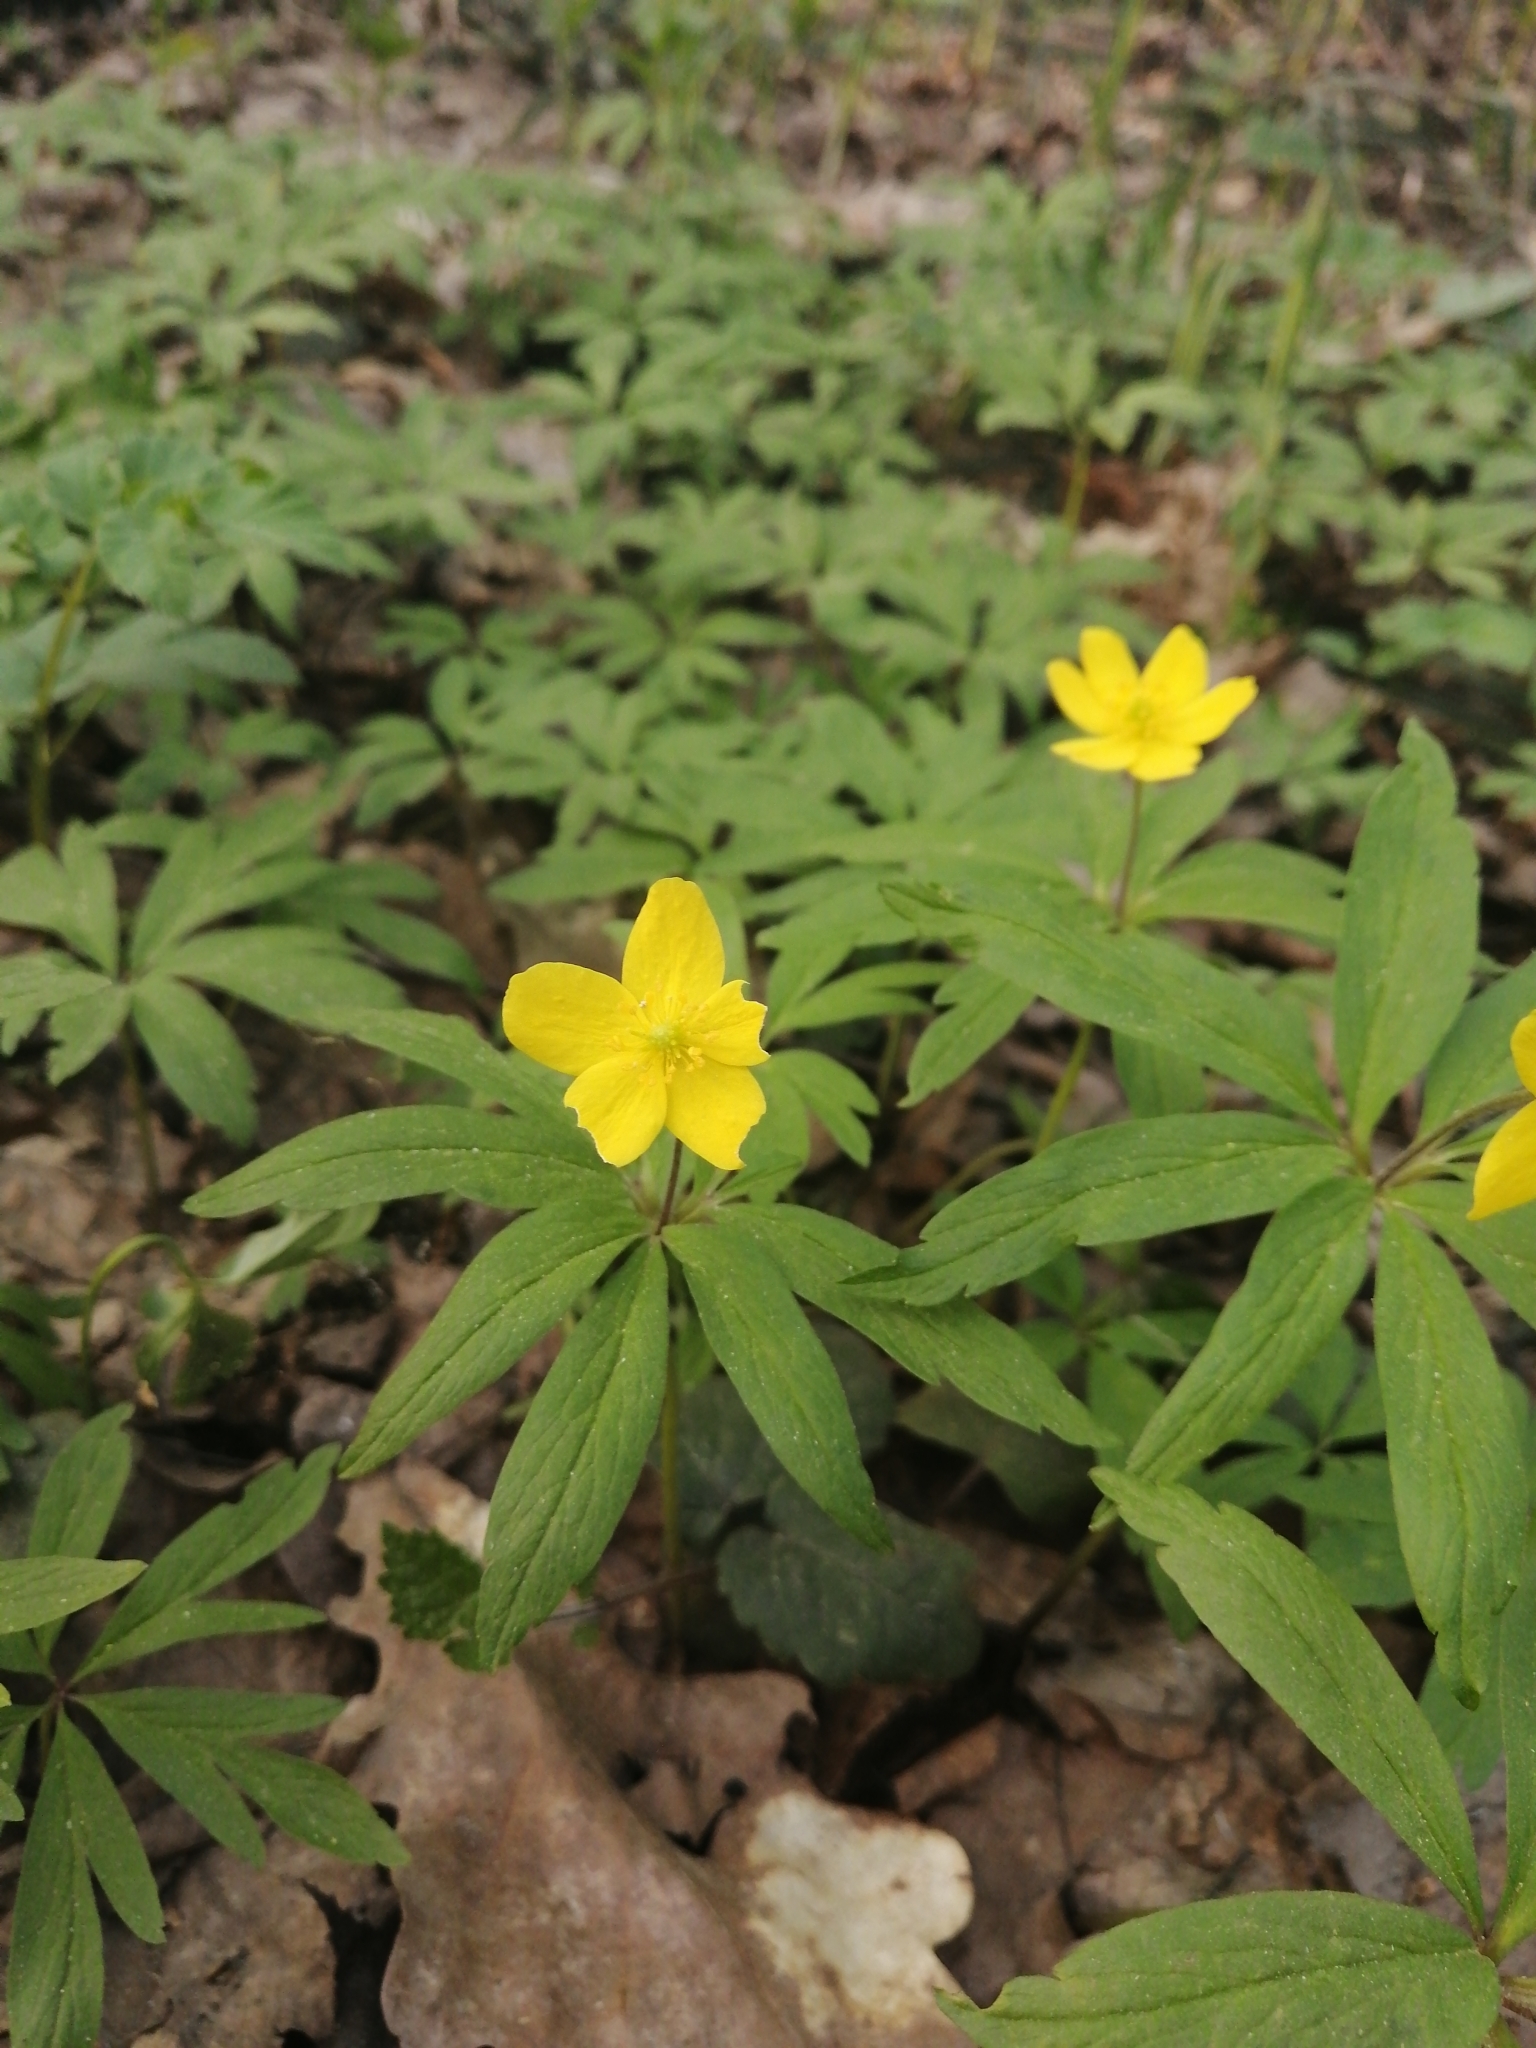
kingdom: Plantae
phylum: Tracheophyta
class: Magnoliopsida
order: Ranunculales
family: Ranunculaceae
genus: Anemone
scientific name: Anemone ranunculoides
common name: Yellow anemone
